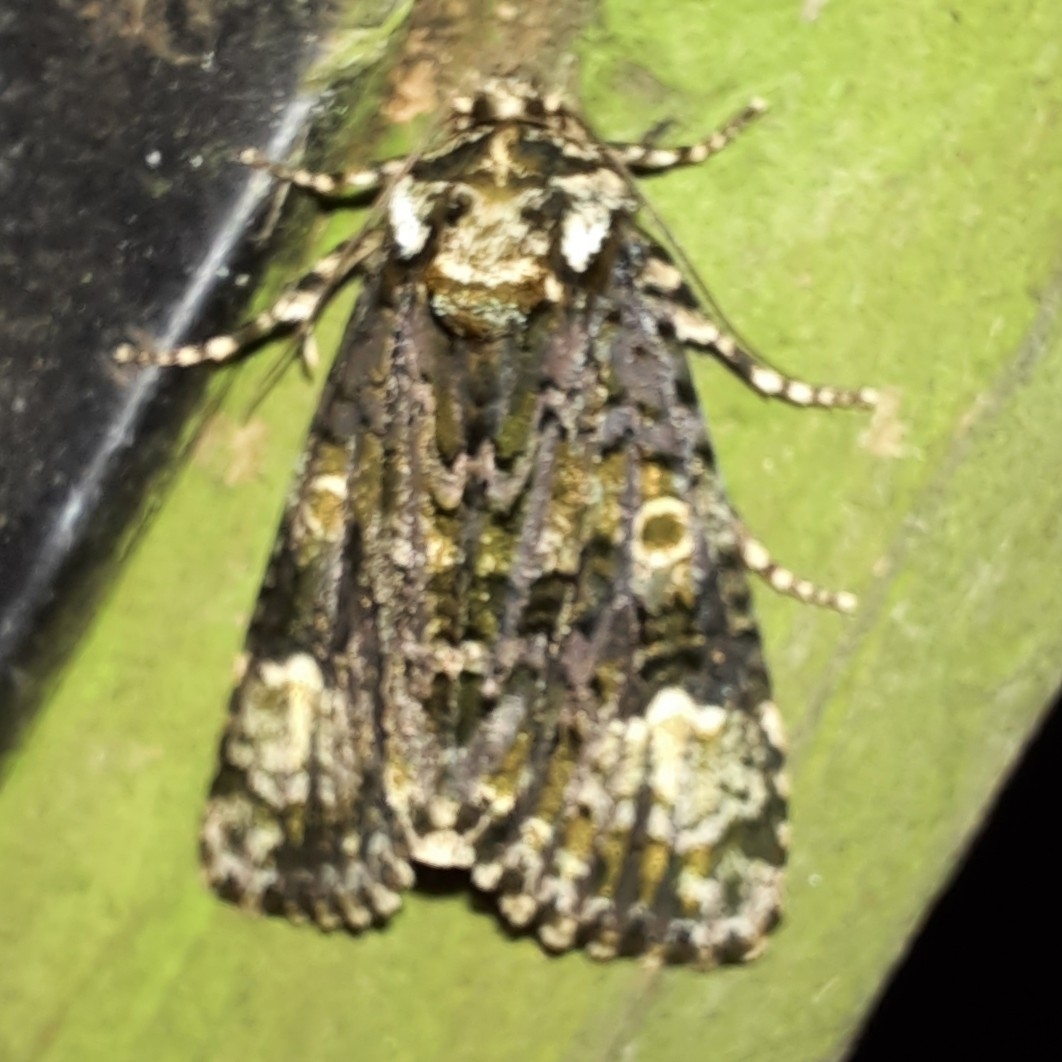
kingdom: Animalia
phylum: Arthropoda
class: Insecta
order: Lepidoptera
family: Noctuidae
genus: Craniophora
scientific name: Craniophora ligustri
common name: Coronet
